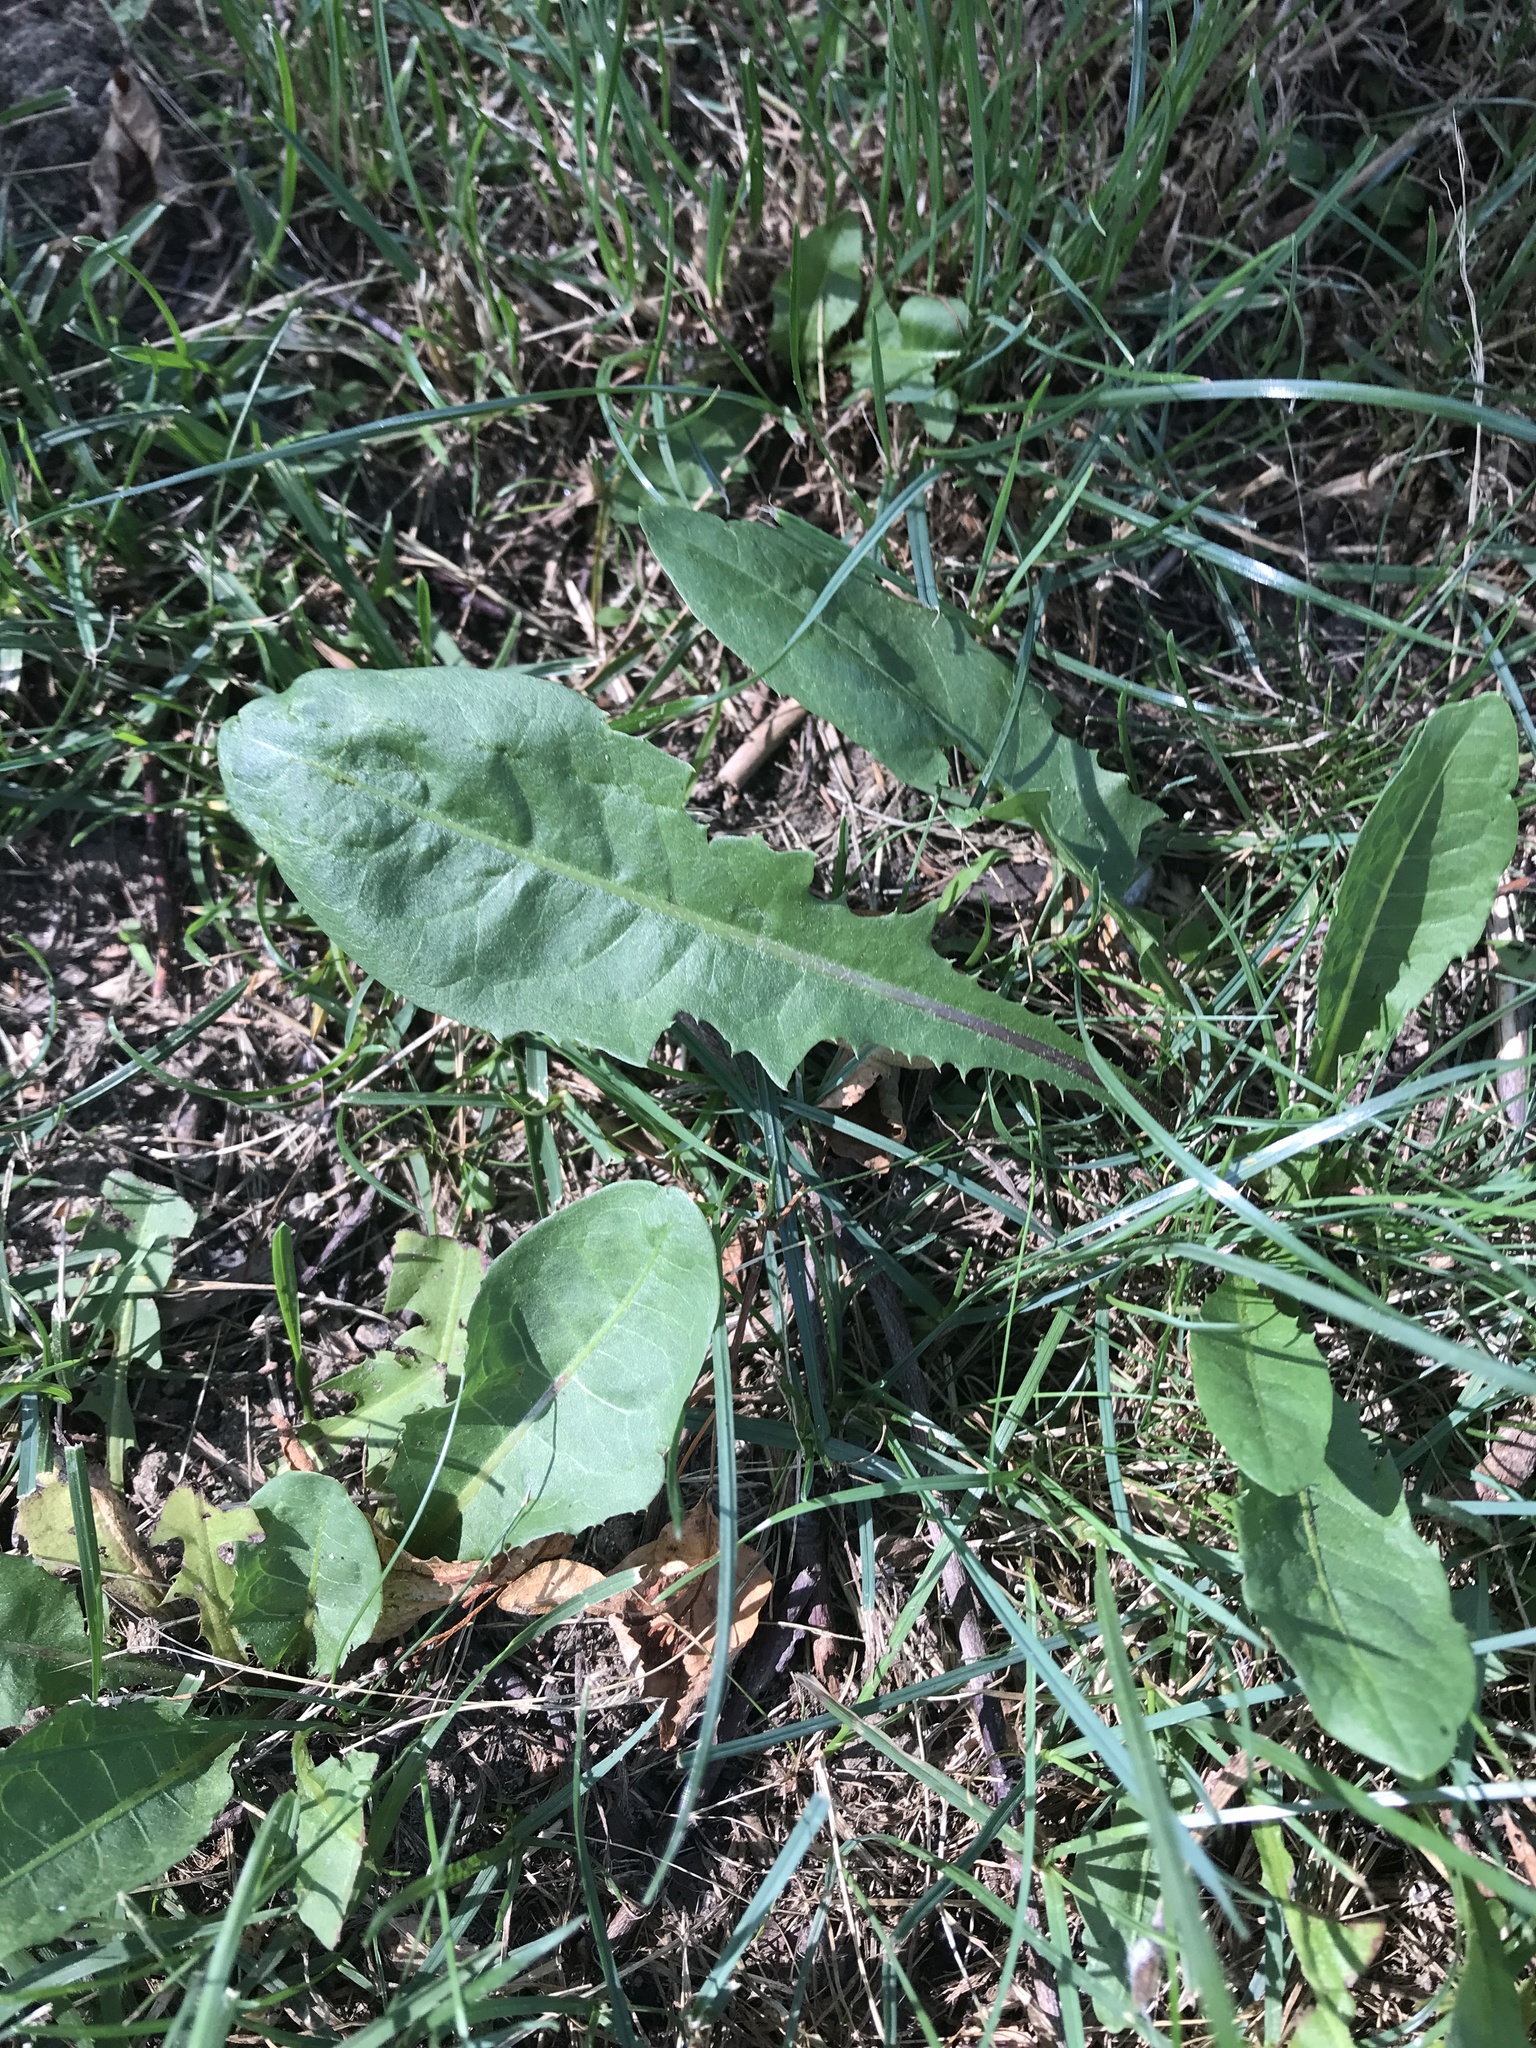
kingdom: Plantae
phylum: Tracheophyta
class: Magnoliopsida
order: Asterales
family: Asteraceae
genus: Taraxacum
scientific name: Taraxacum officinale
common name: Common dandelion
